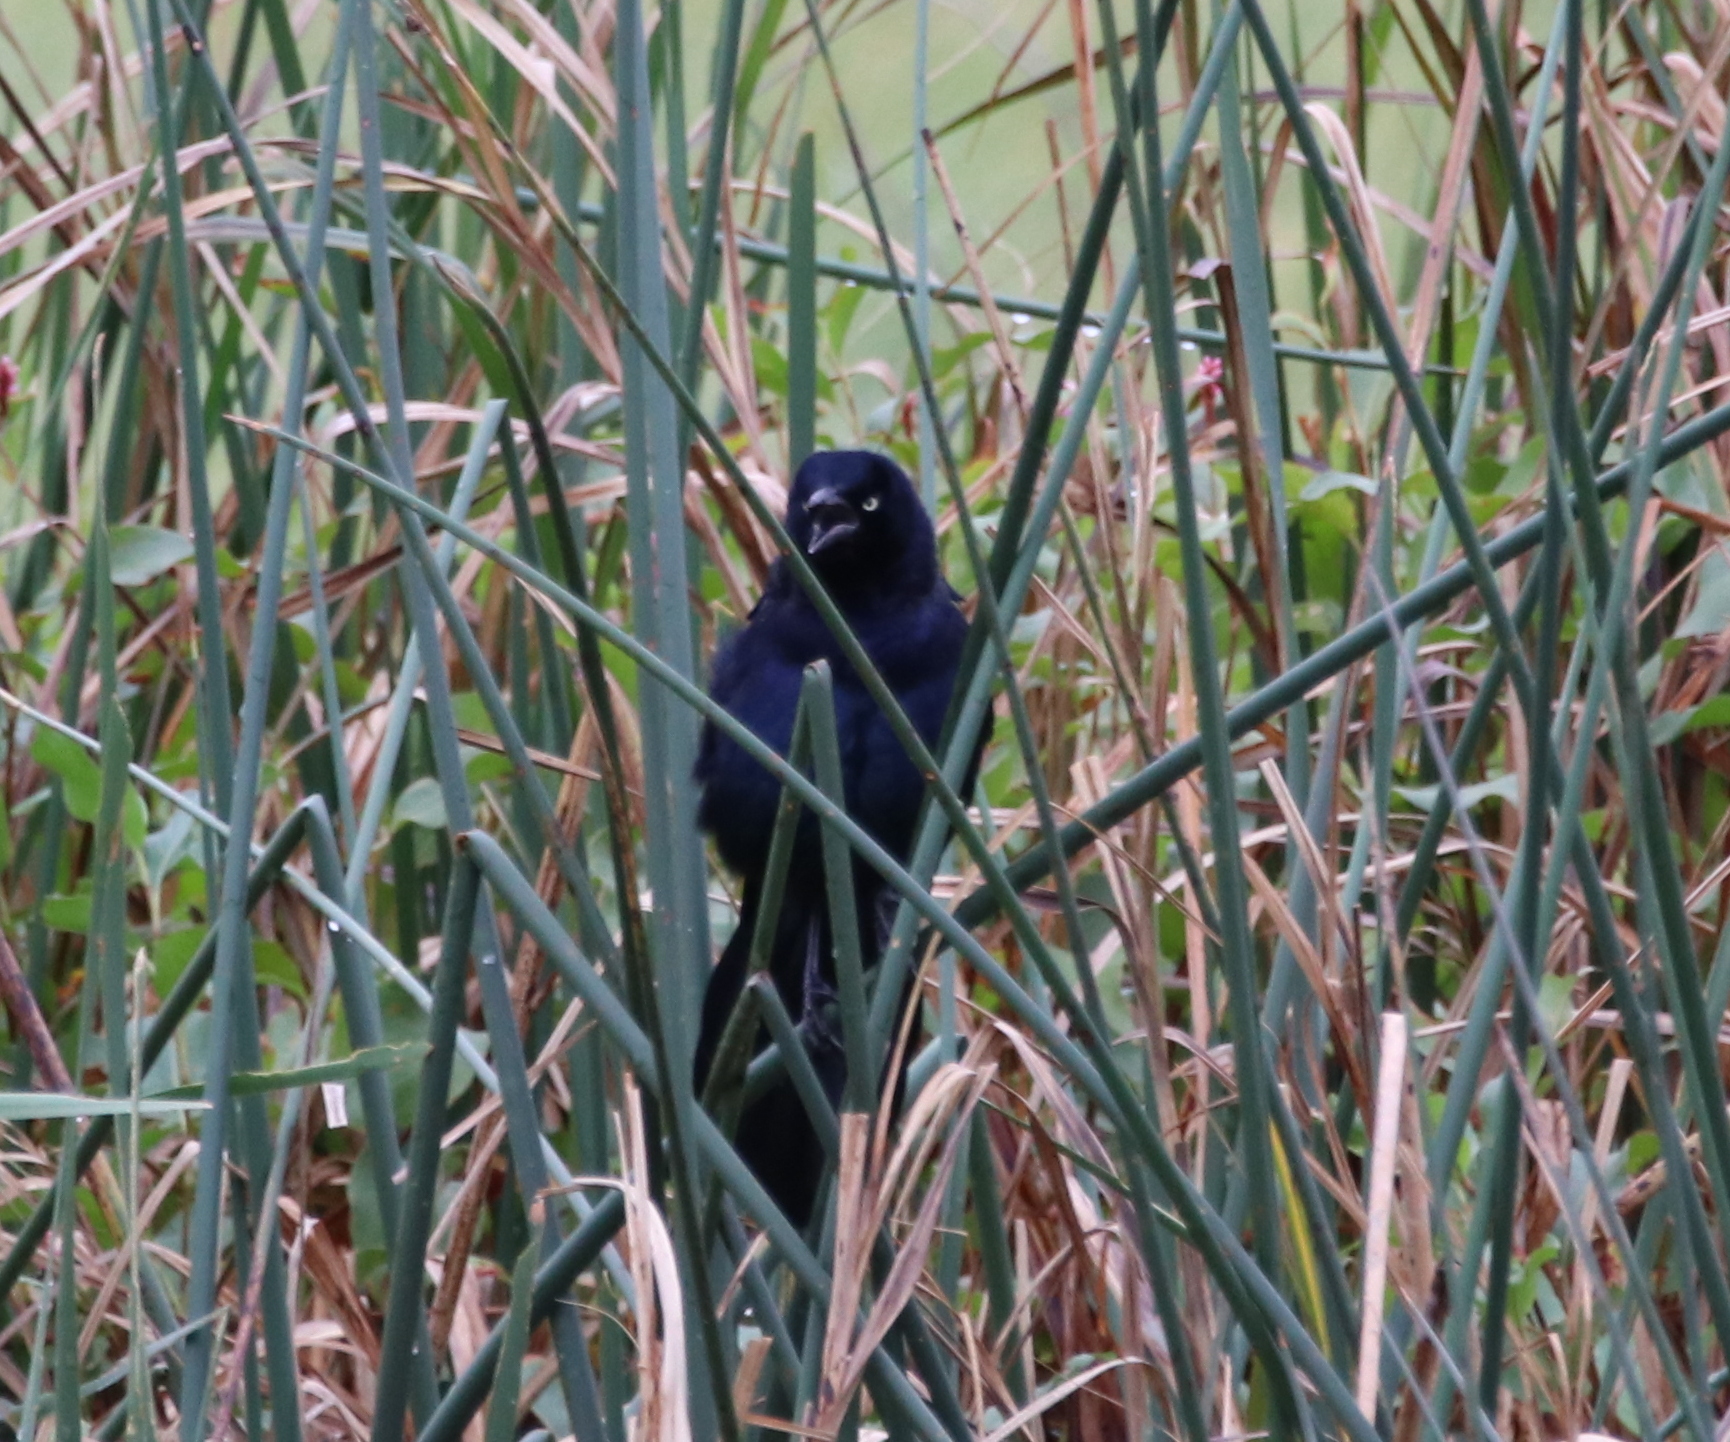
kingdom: Animalia
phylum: Chordata
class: Aves
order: Passeriformes
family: Icteridae
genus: Quiscalus
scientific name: Quiscalus mexicanus
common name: Great-tailed grackle
